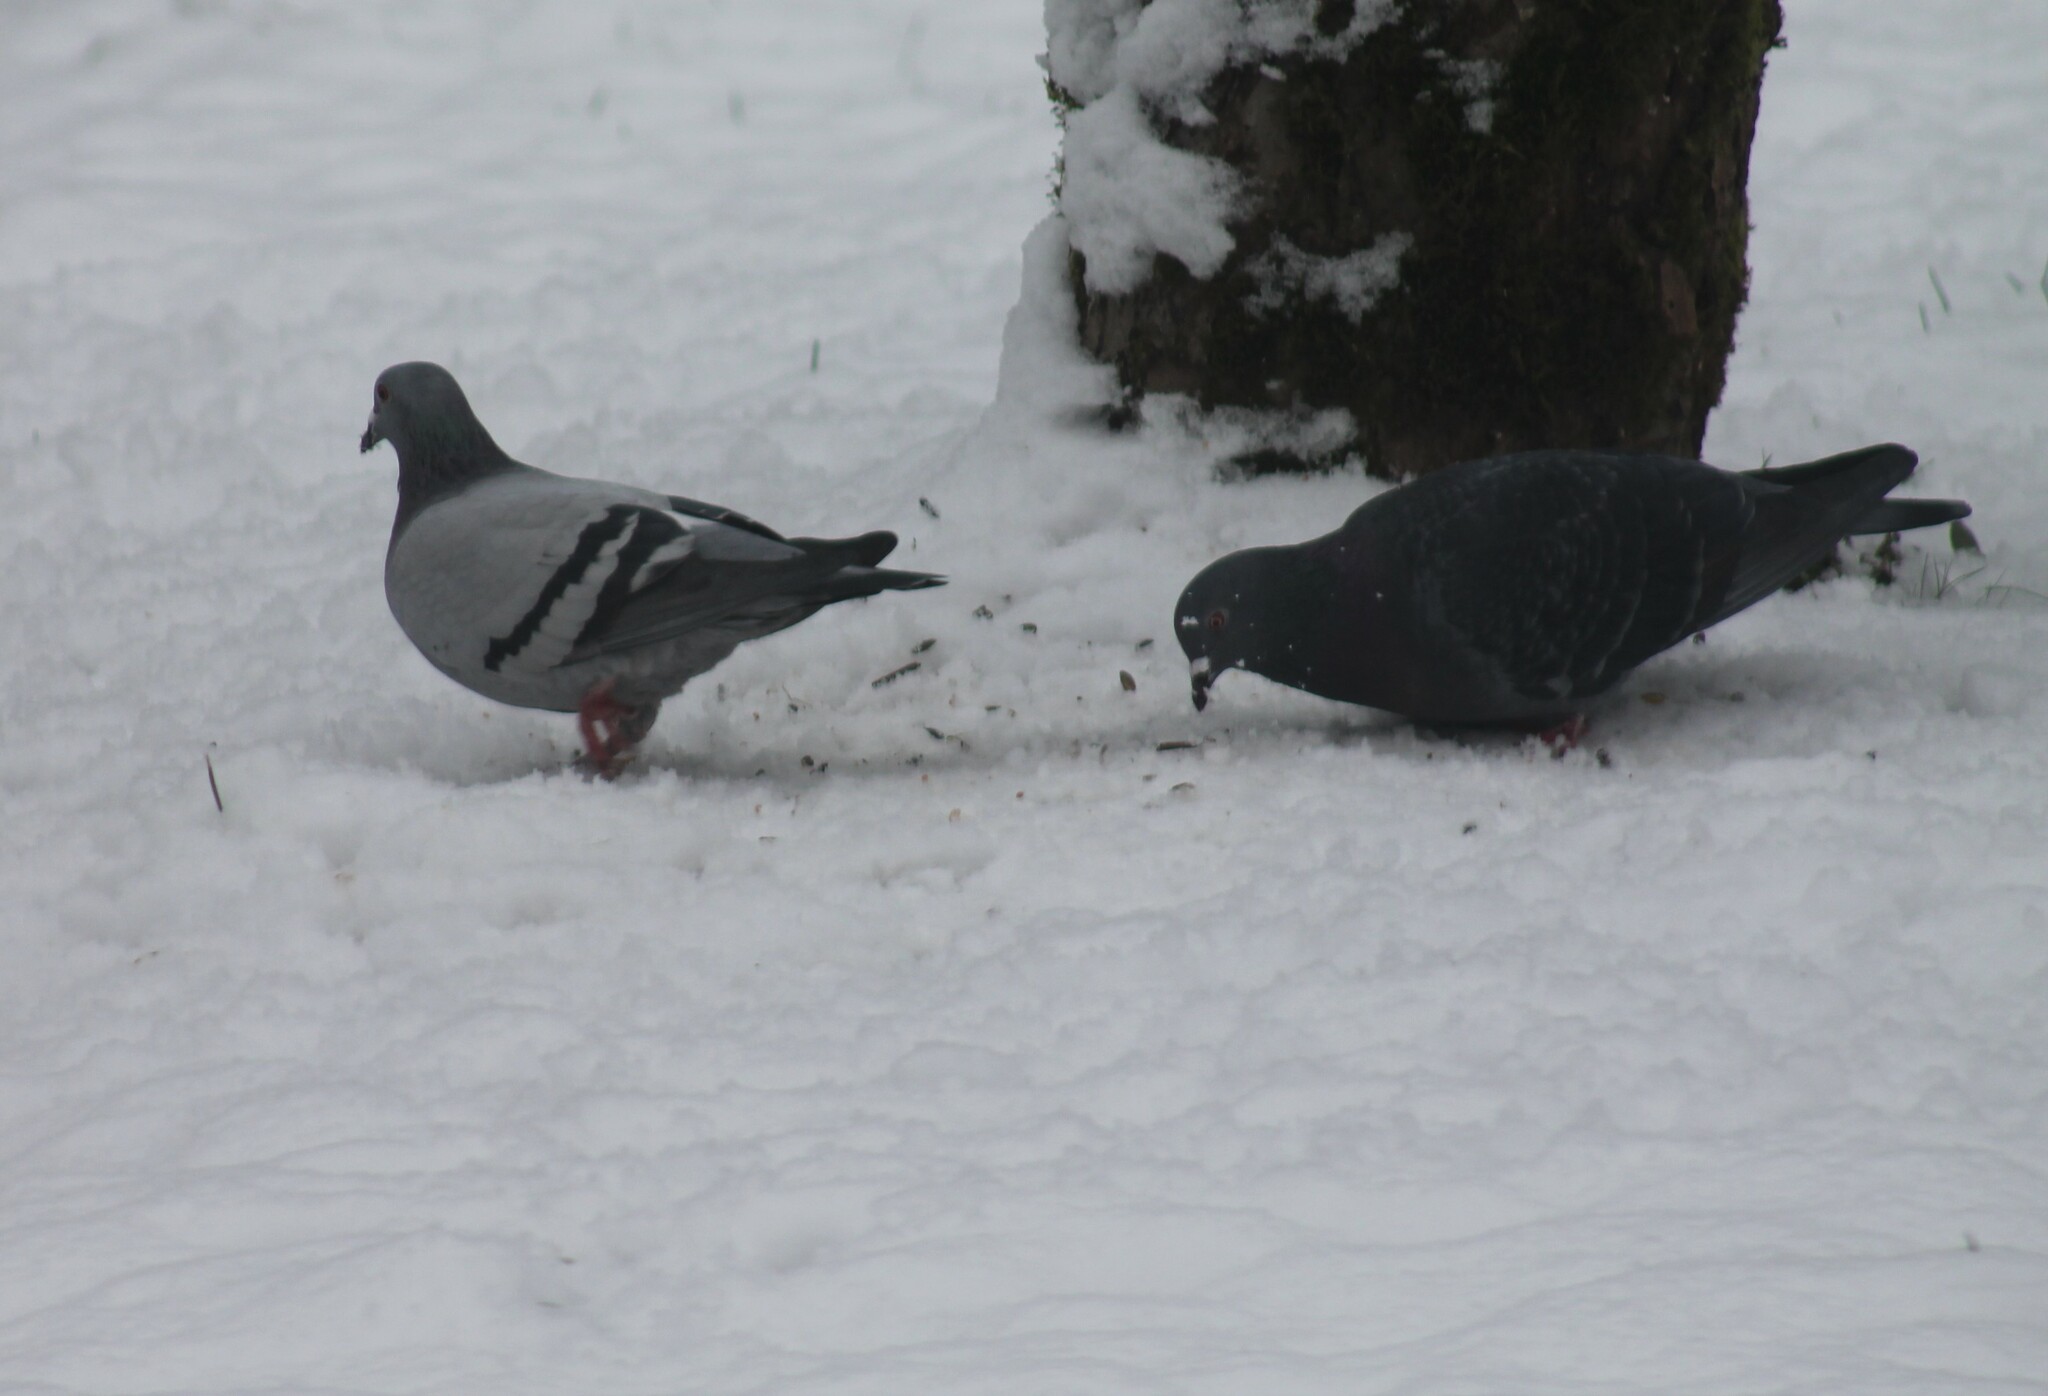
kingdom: Animalia
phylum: Chordata
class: Aves
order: Columbiformes
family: Columbidae
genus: Columba
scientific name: Columba livia
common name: Rock pigeon
